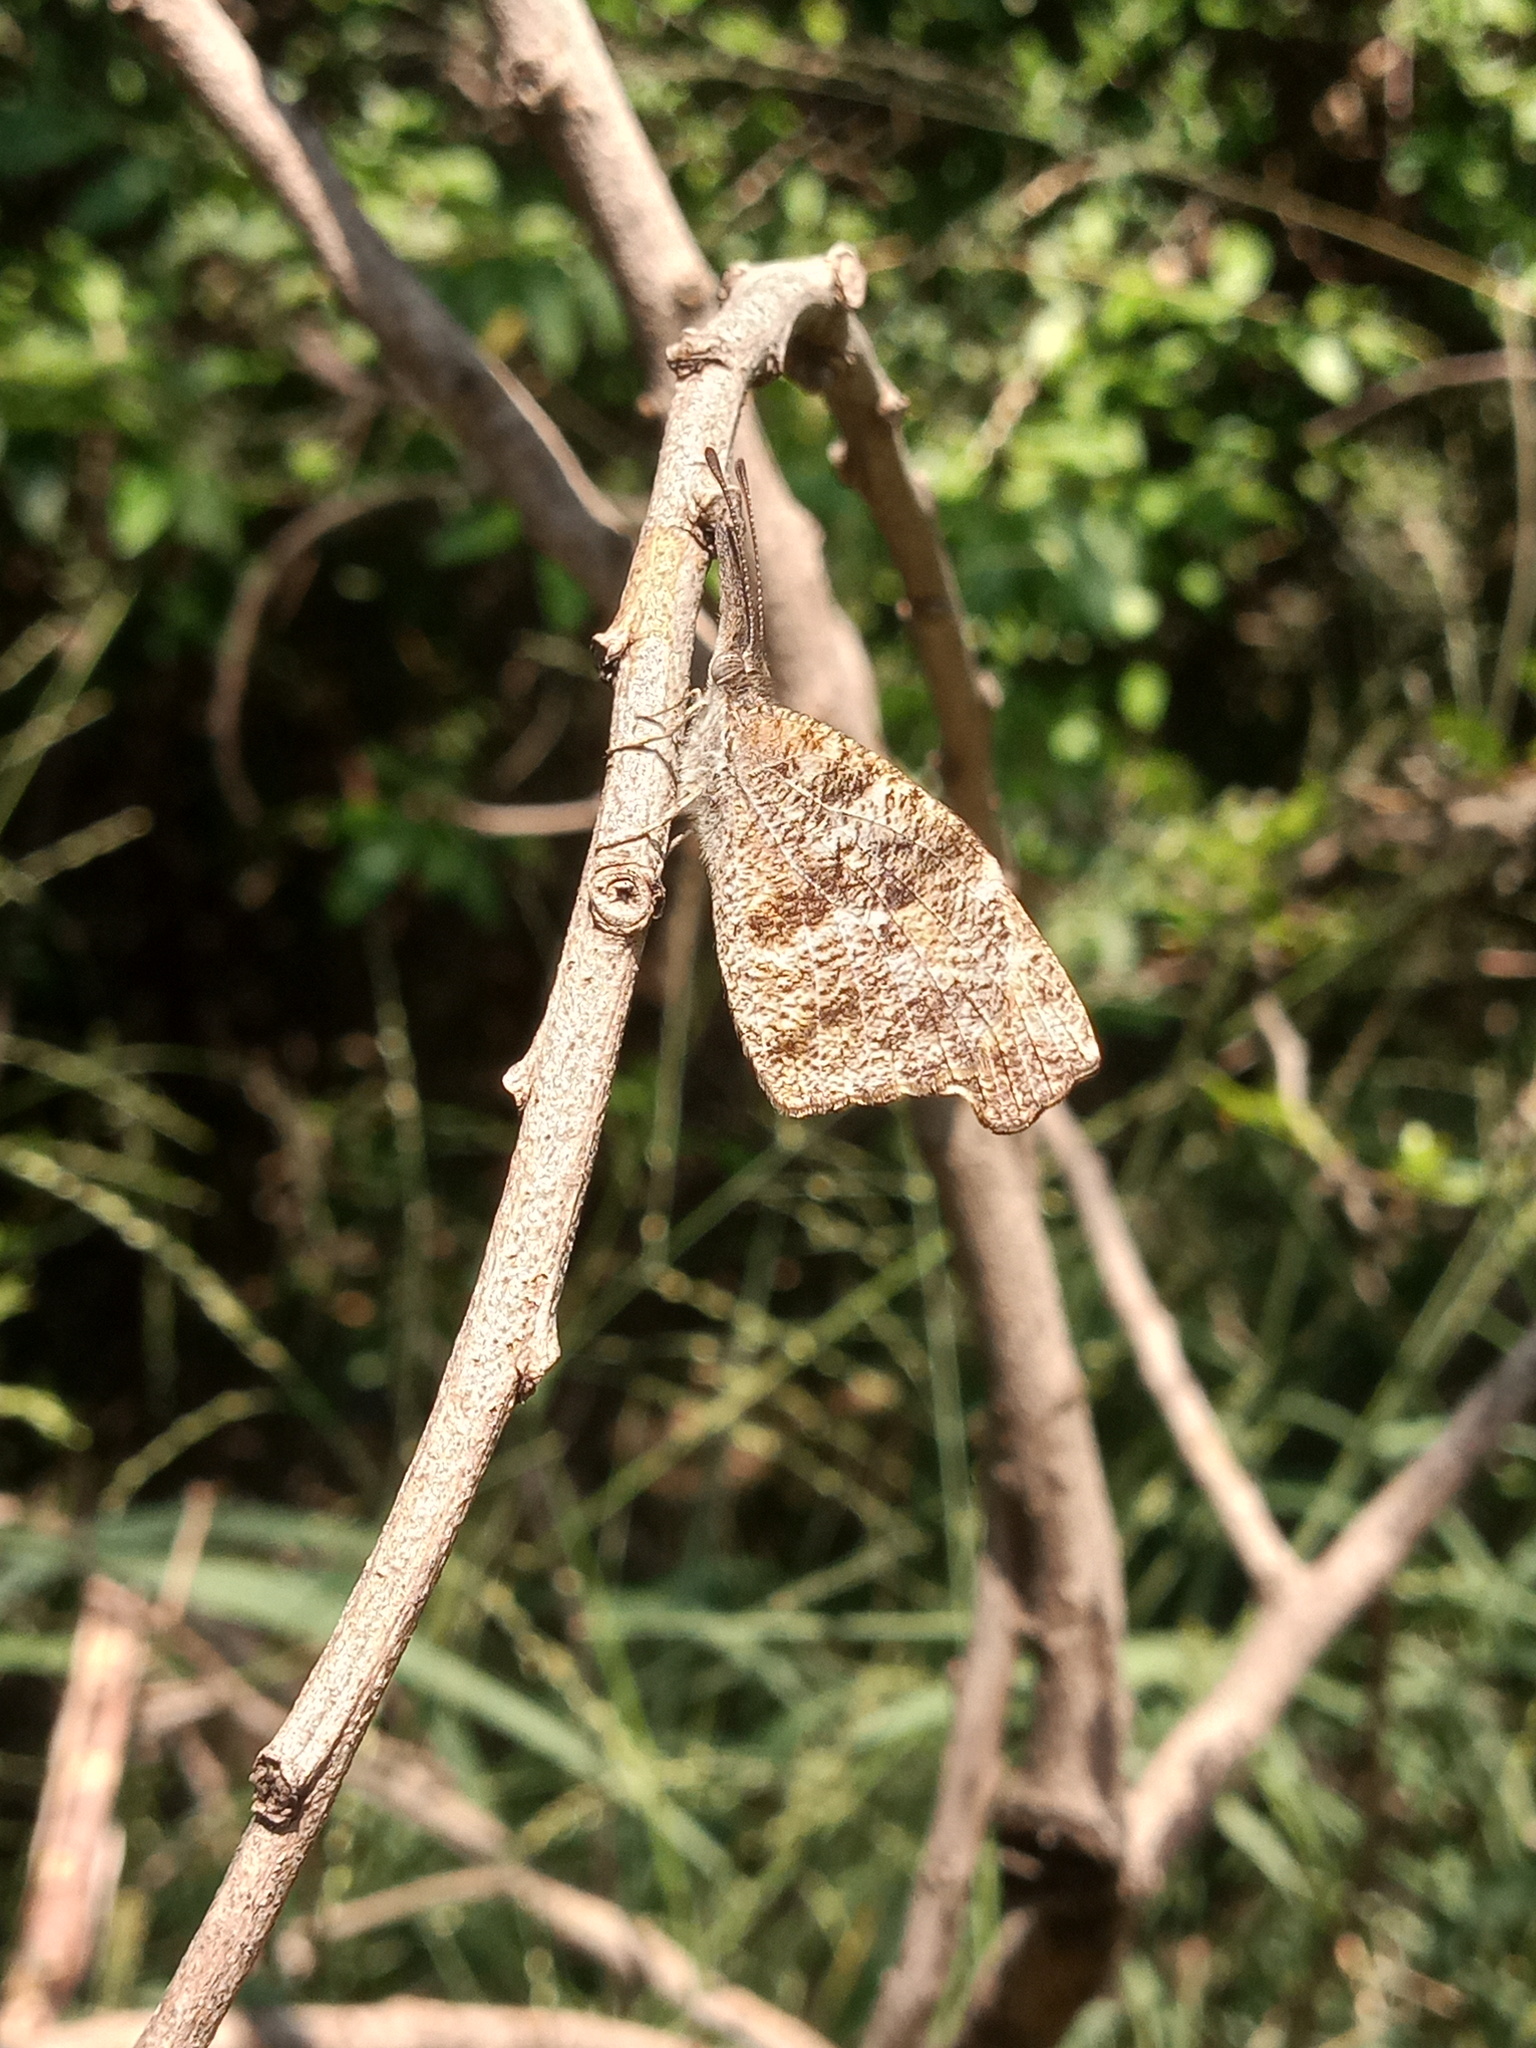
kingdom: Animalia
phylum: Arthropoda
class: Insecta
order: Lepidoptera
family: Nymphalidae
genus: Libytheana
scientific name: Libytheana carinenta
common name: American snout
